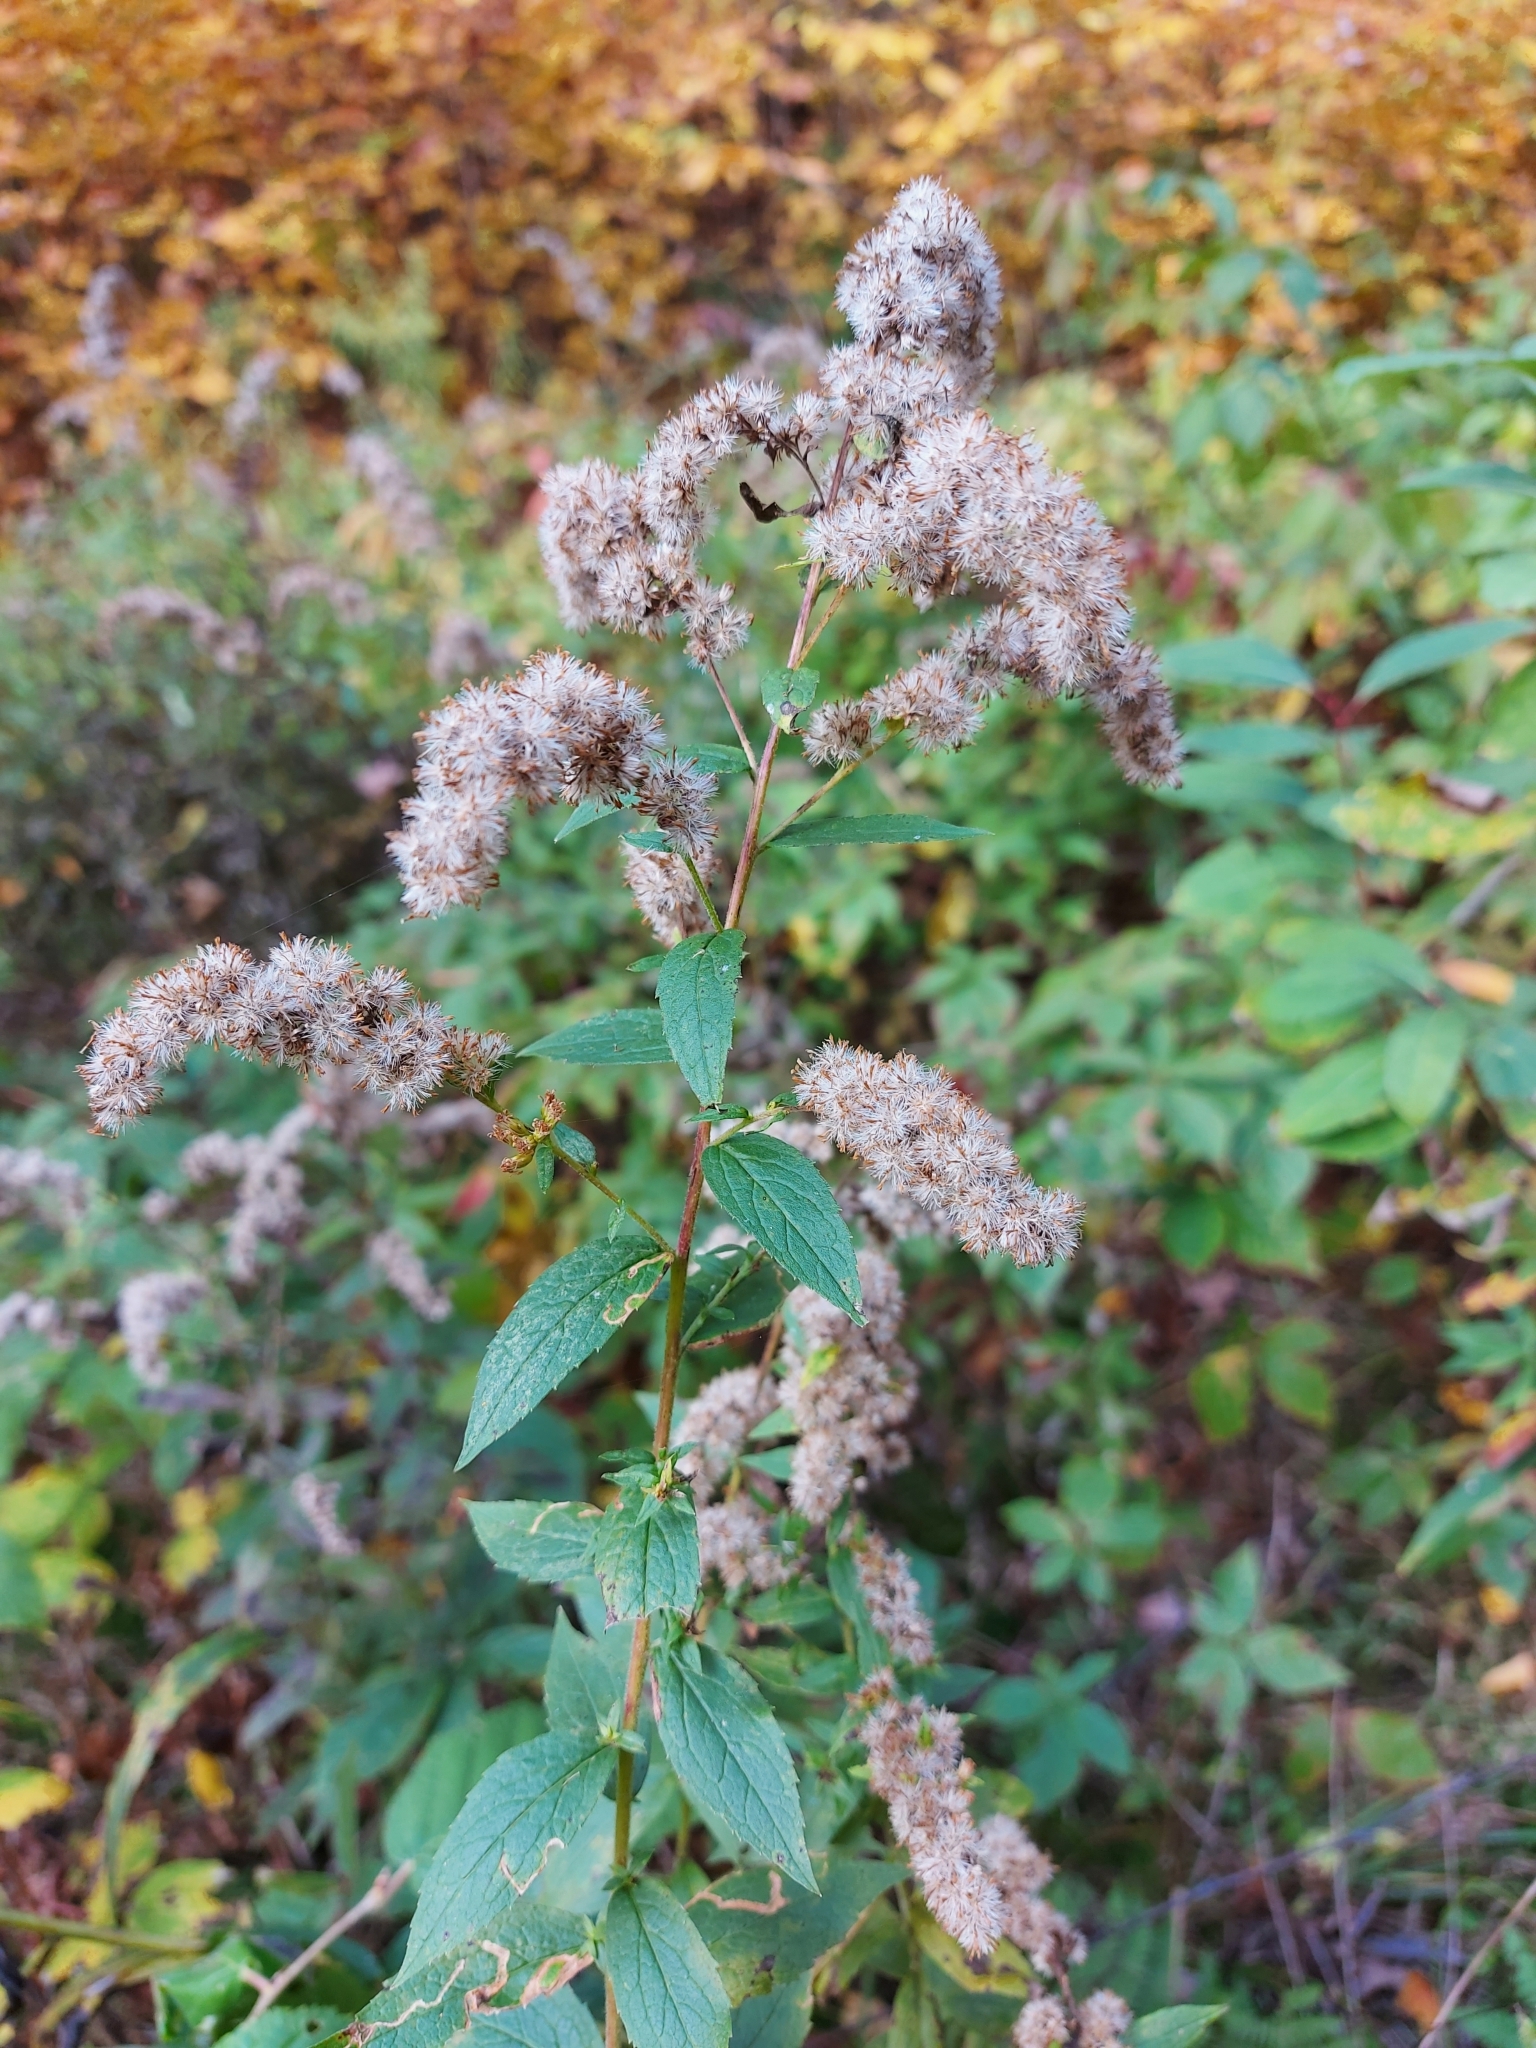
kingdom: Plantae
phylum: Tracheophyta
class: Magnoliopsida
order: Asterales
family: Asteraceae
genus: Solidago
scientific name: Solidago rugosa
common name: Rough-stemmed goldenrod
